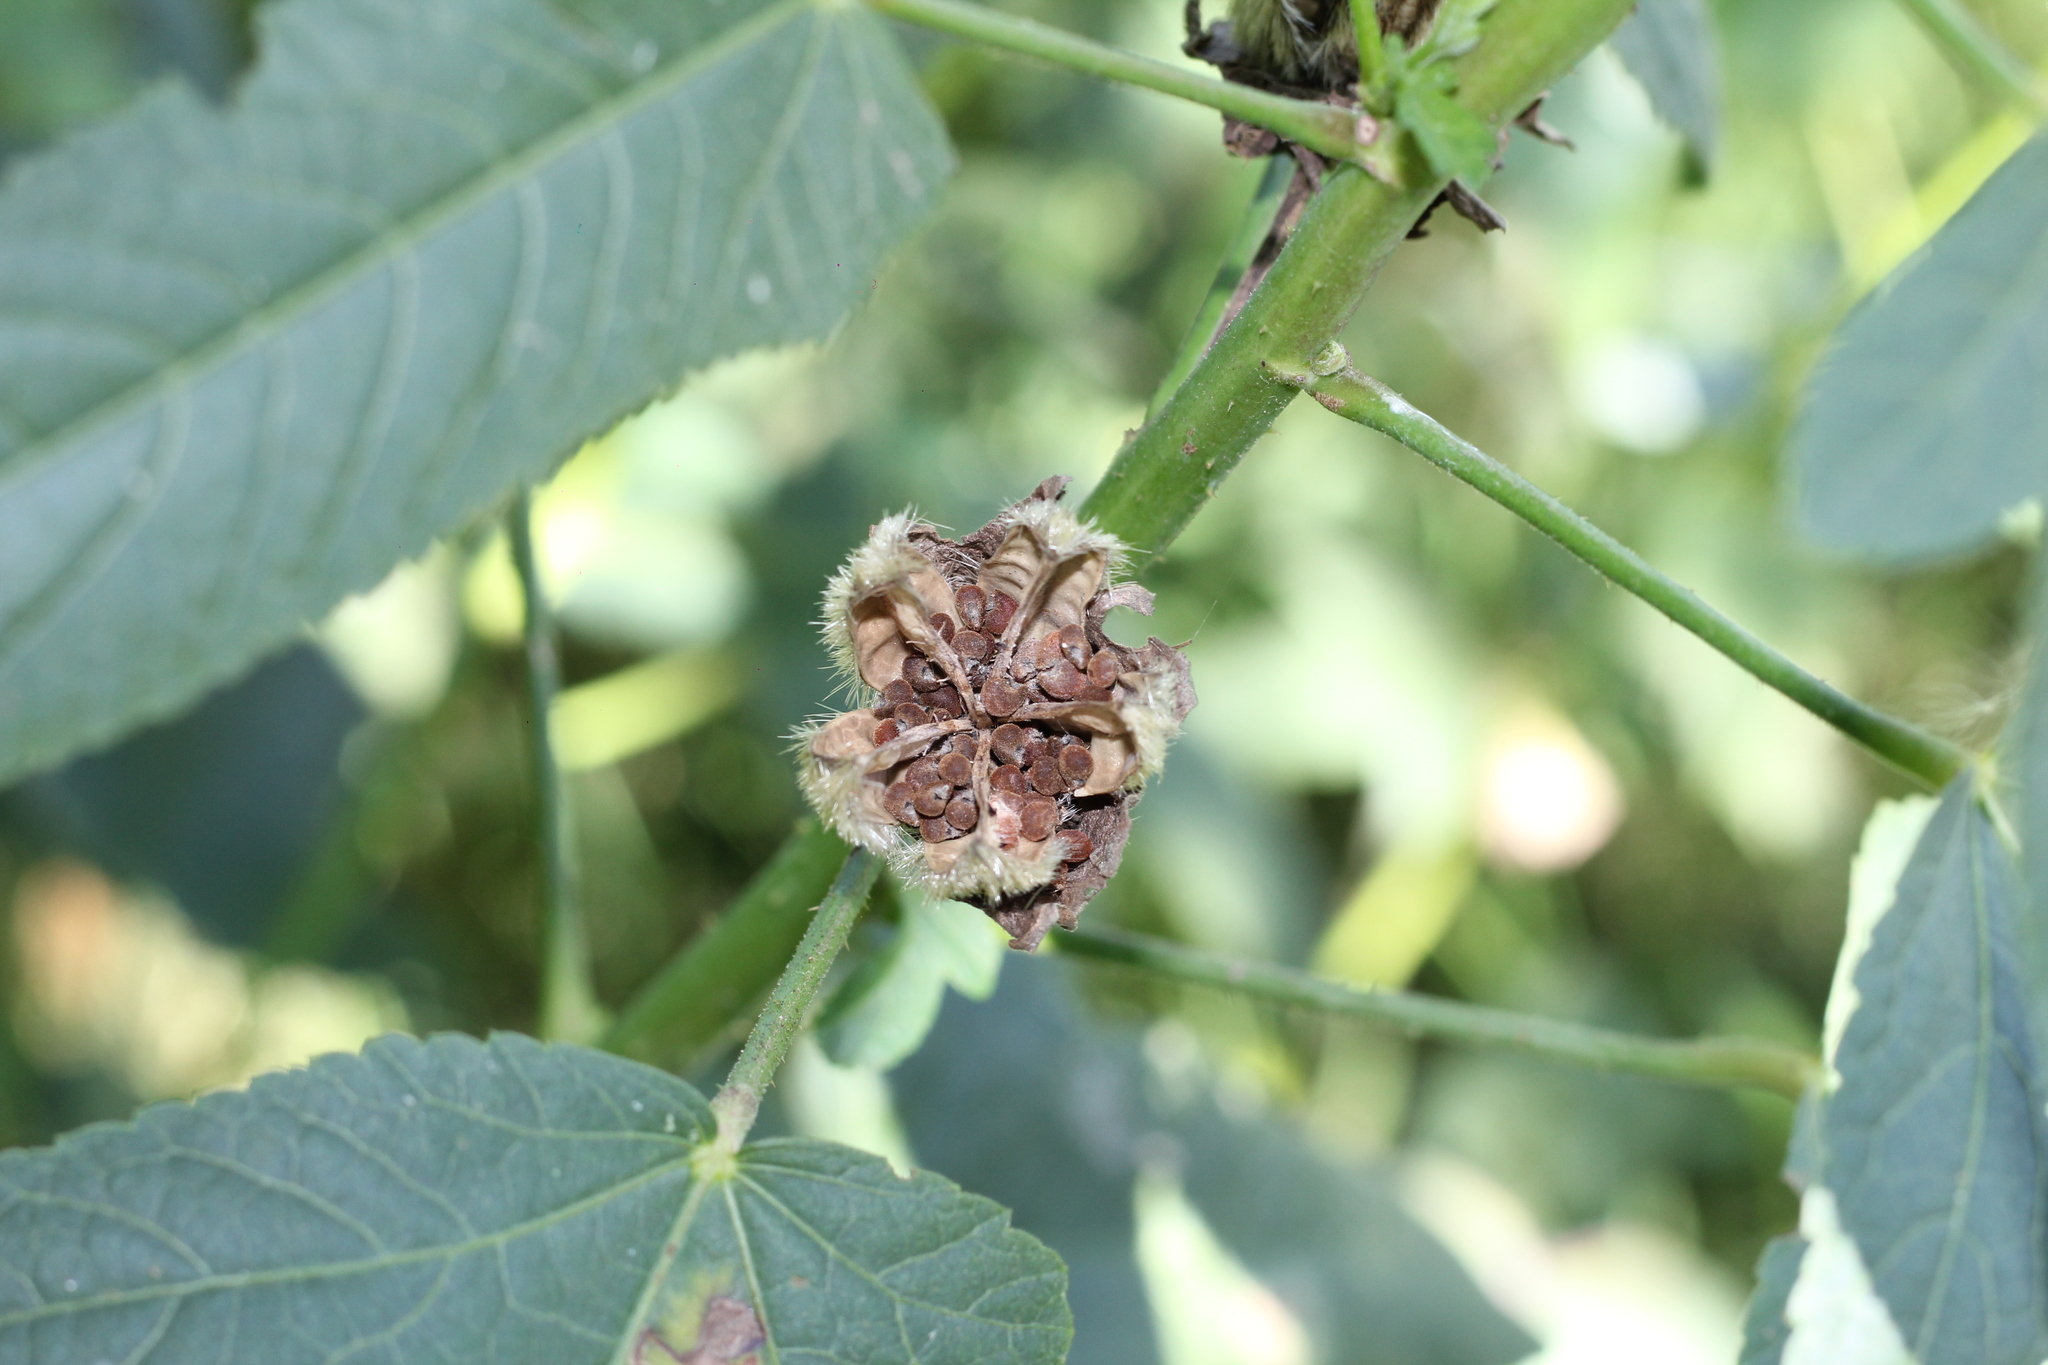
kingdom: Plantae
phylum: Tracheophyta
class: Magnoliopsida
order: Malvales
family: Malvaceae
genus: Hibiscus
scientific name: Hibiscus striatus
